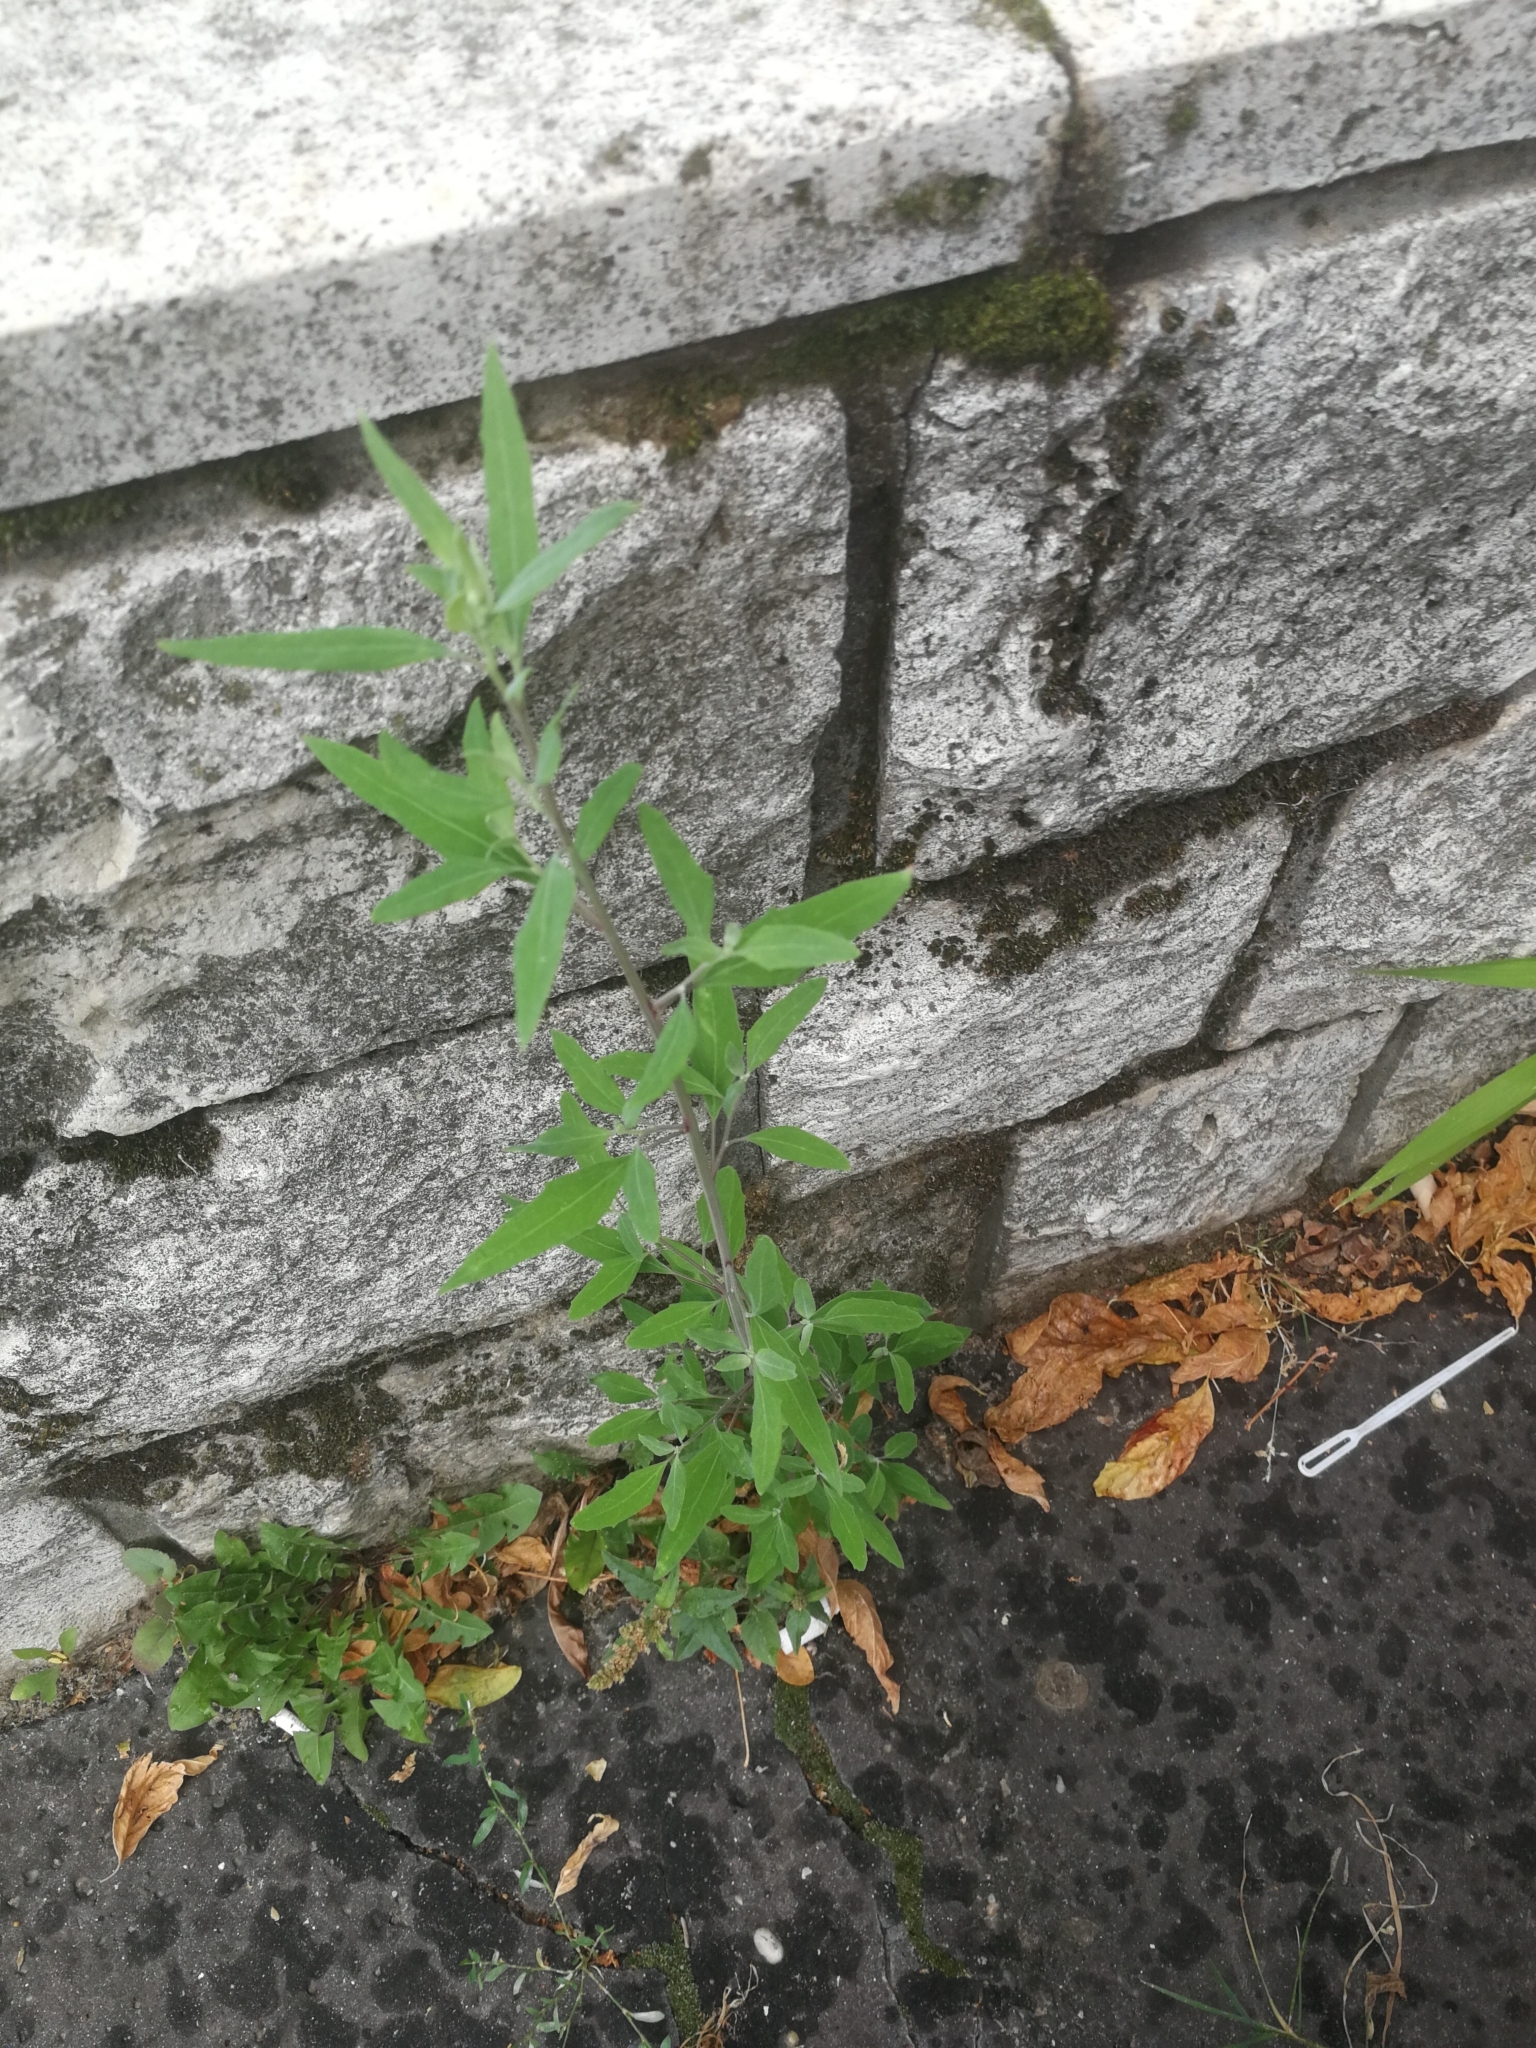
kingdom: Plantae
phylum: Tracheophyta
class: Magnoliopsida
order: Caryophyllales
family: Amaranthaceae
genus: Chenopodium
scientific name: Chenopodium album
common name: Fat-hen
